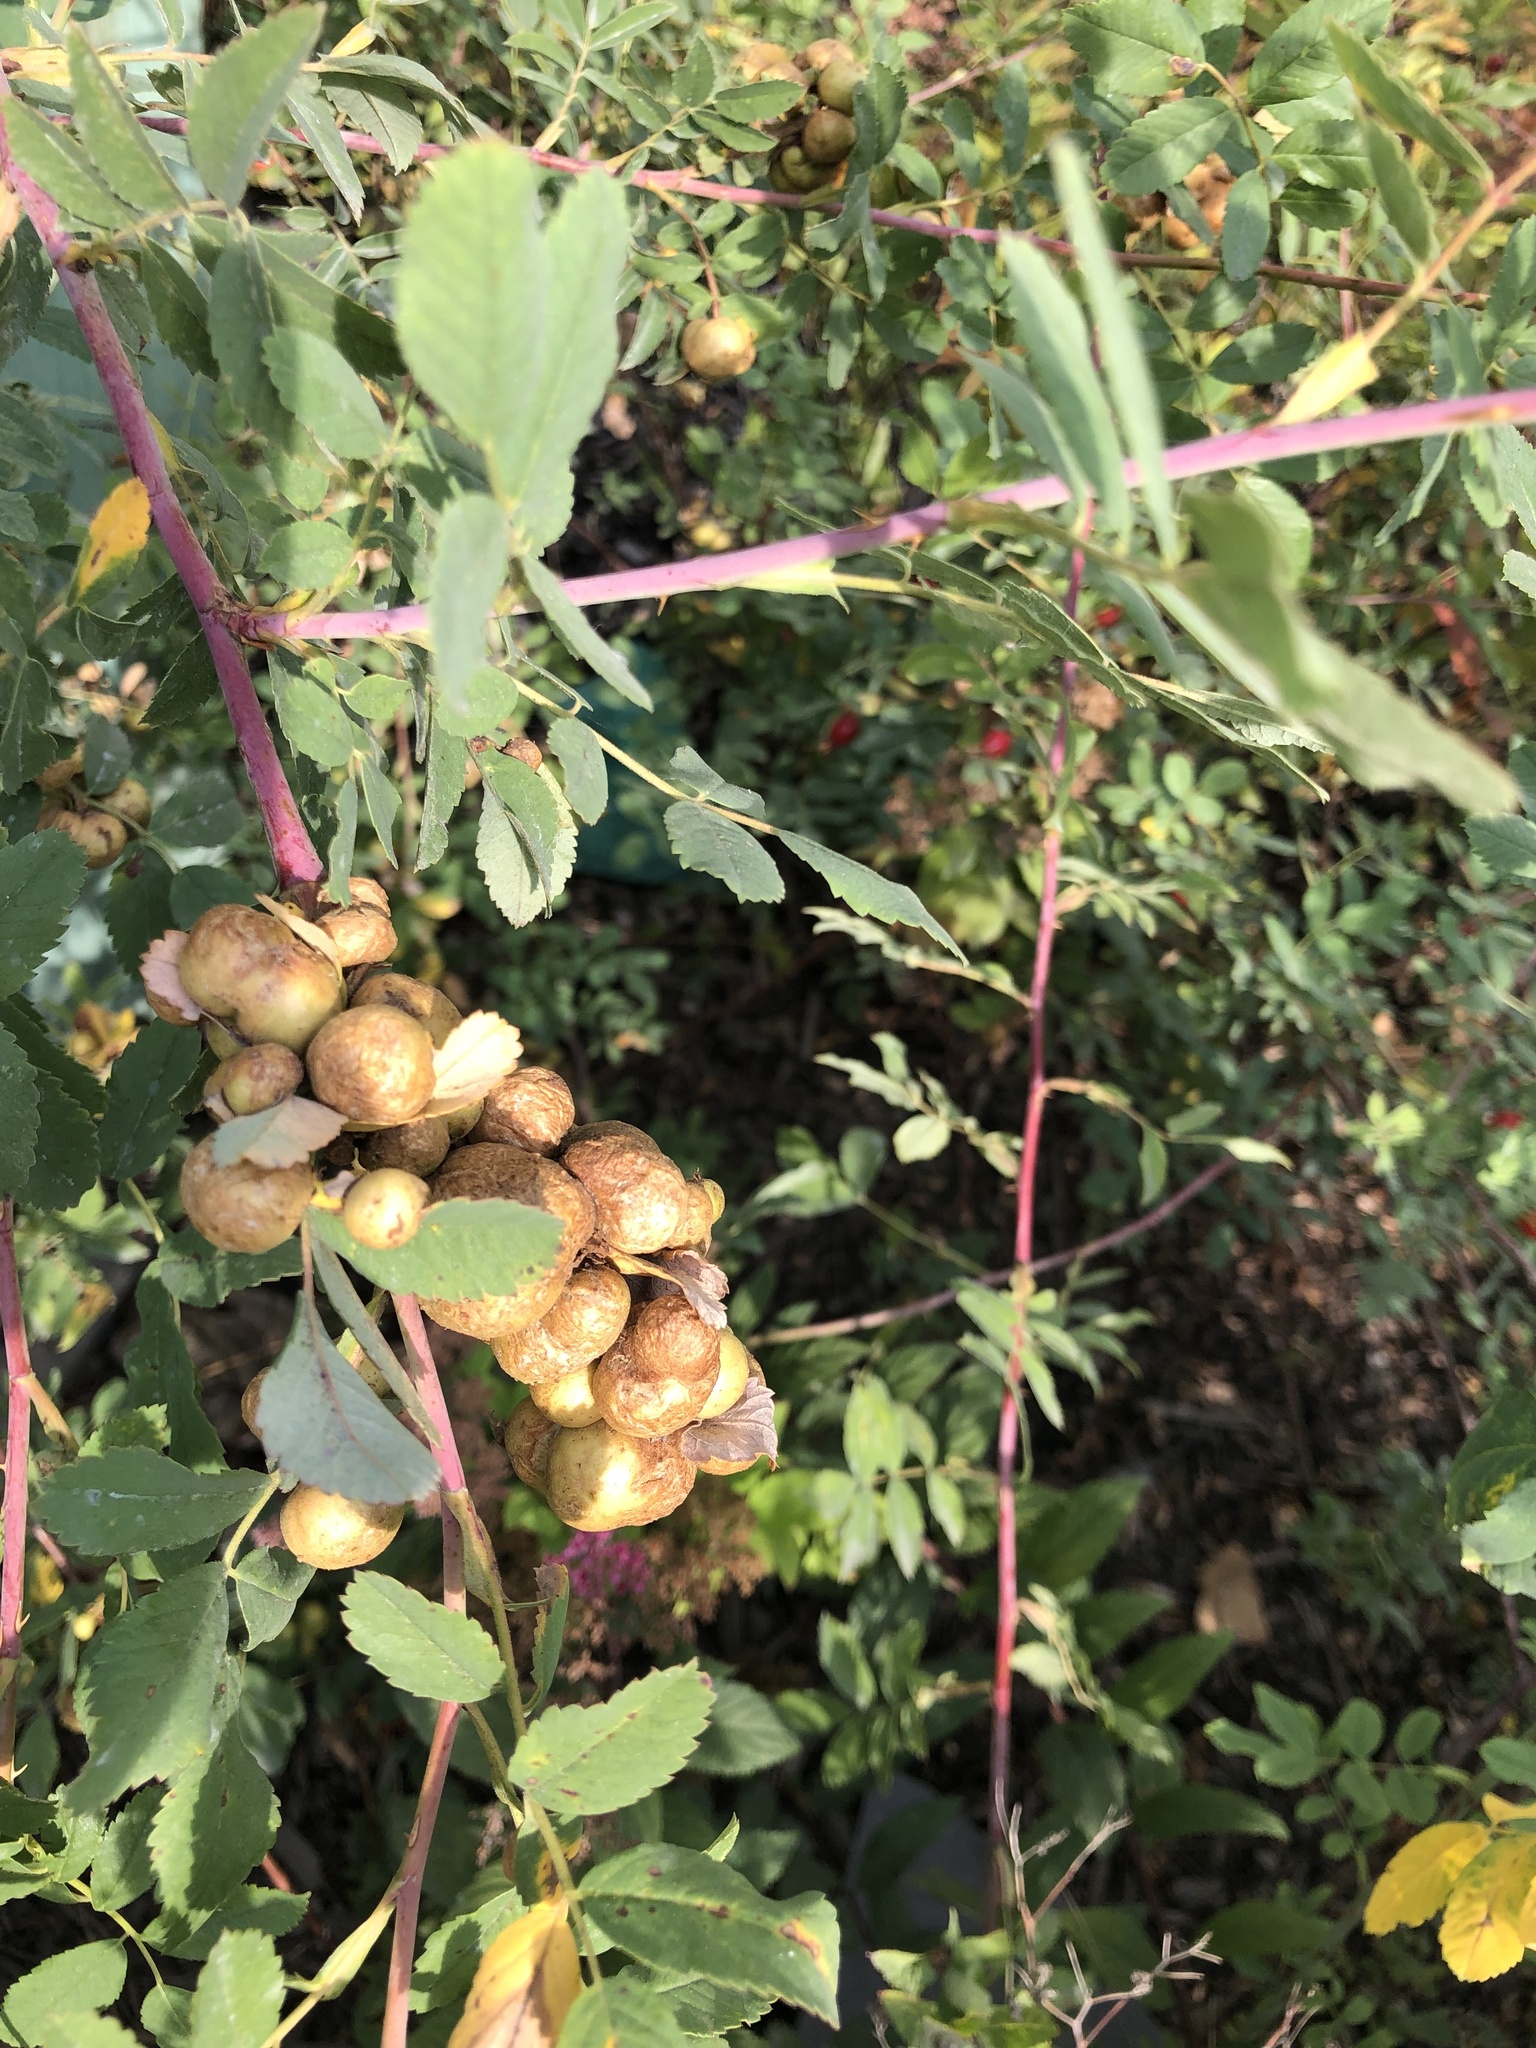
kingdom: Animalia
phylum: Arthropoda
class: Insecta
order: Hymenoptera
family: Cynipidae
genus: Diplolepis
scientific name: Diplolepis variabilis
